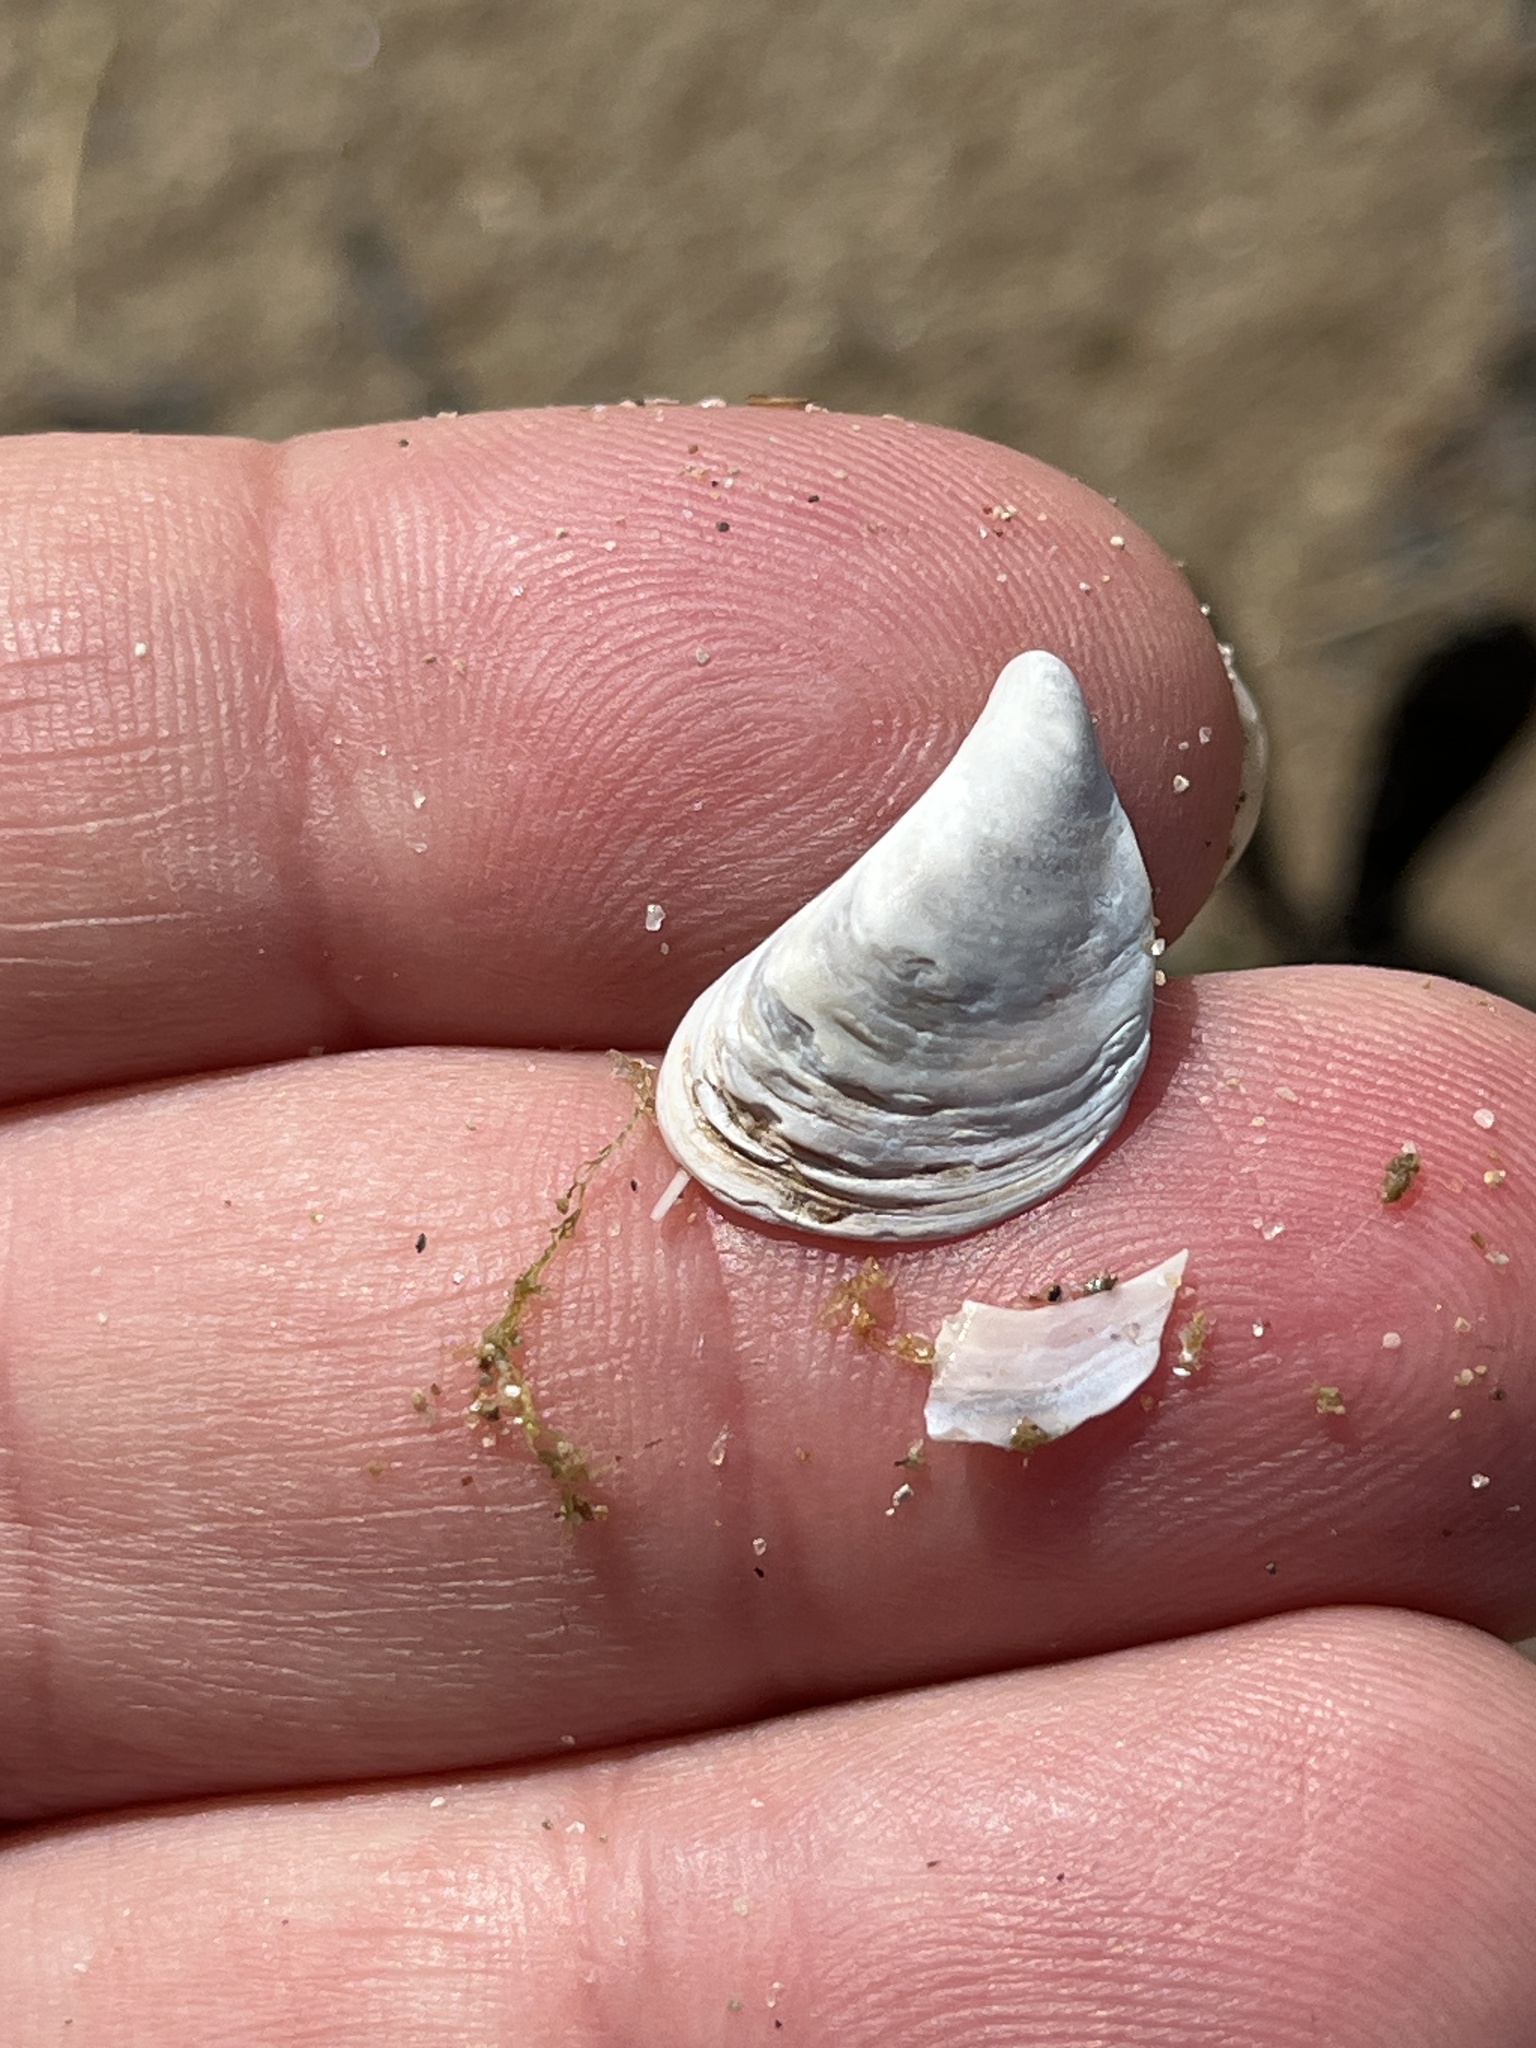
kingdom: Animalia
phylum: Mollusca
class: Bivalvia
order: Myida
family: Dreissenidae
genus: Dreissena
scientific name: Dreissena bugensis
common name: Quagga mussel
